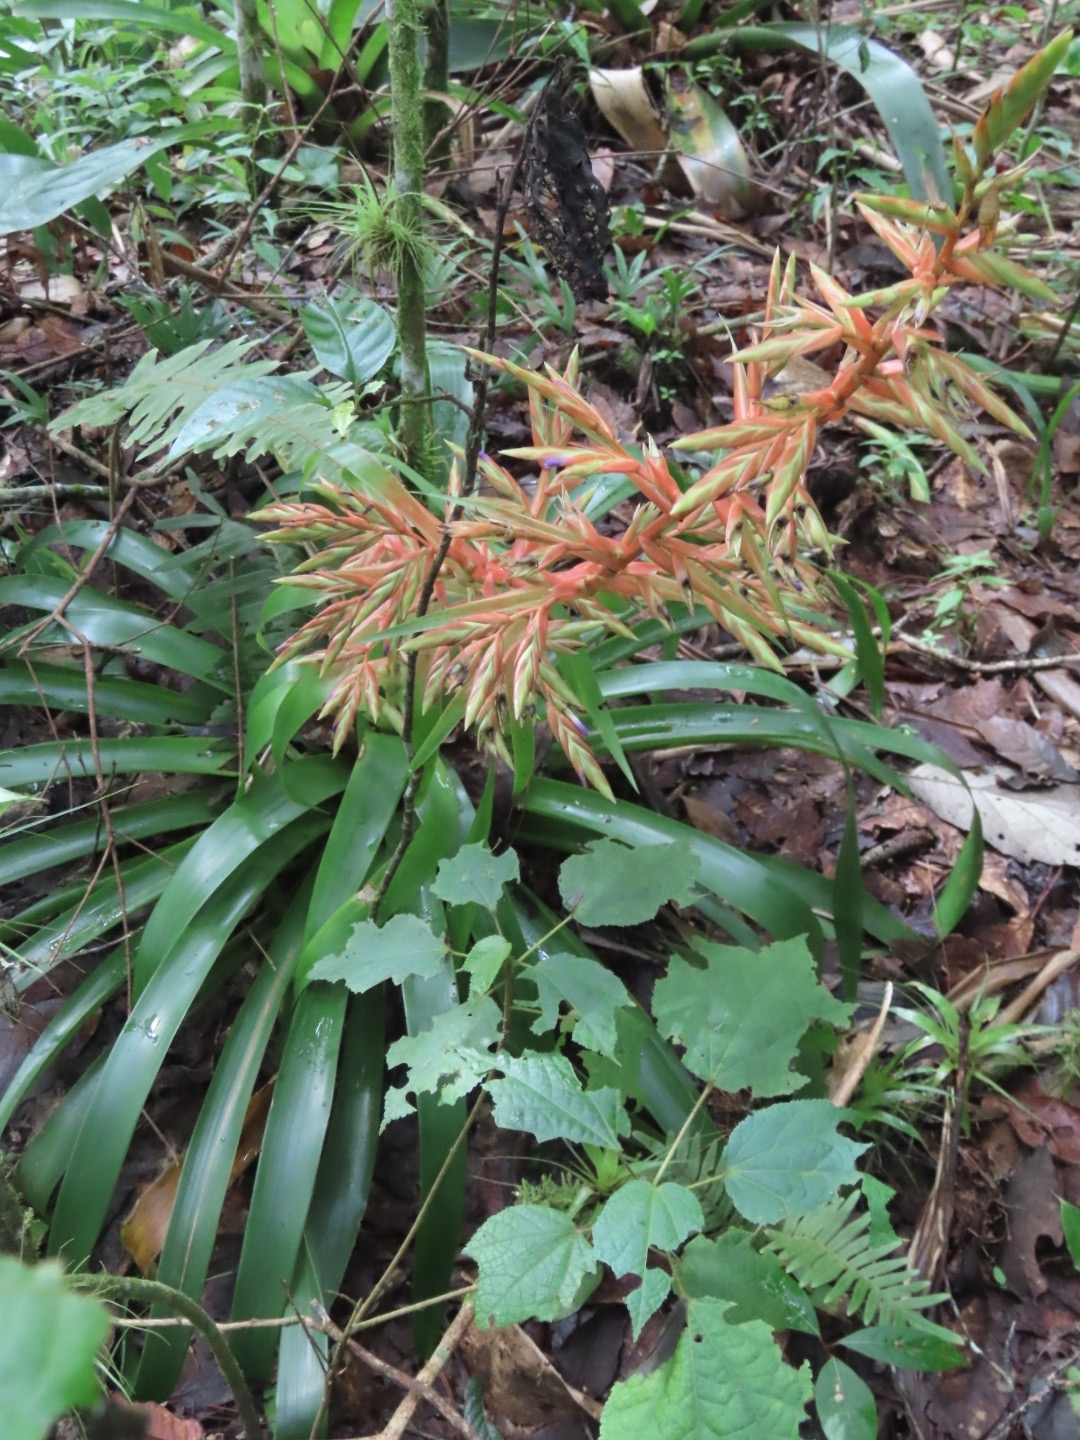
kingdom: Plantae
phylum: Tracheophyta
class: Liliopsida
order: Poales
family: Bromeliaceae
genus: Tillandsia
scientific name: Tillandsia guatemalensis
